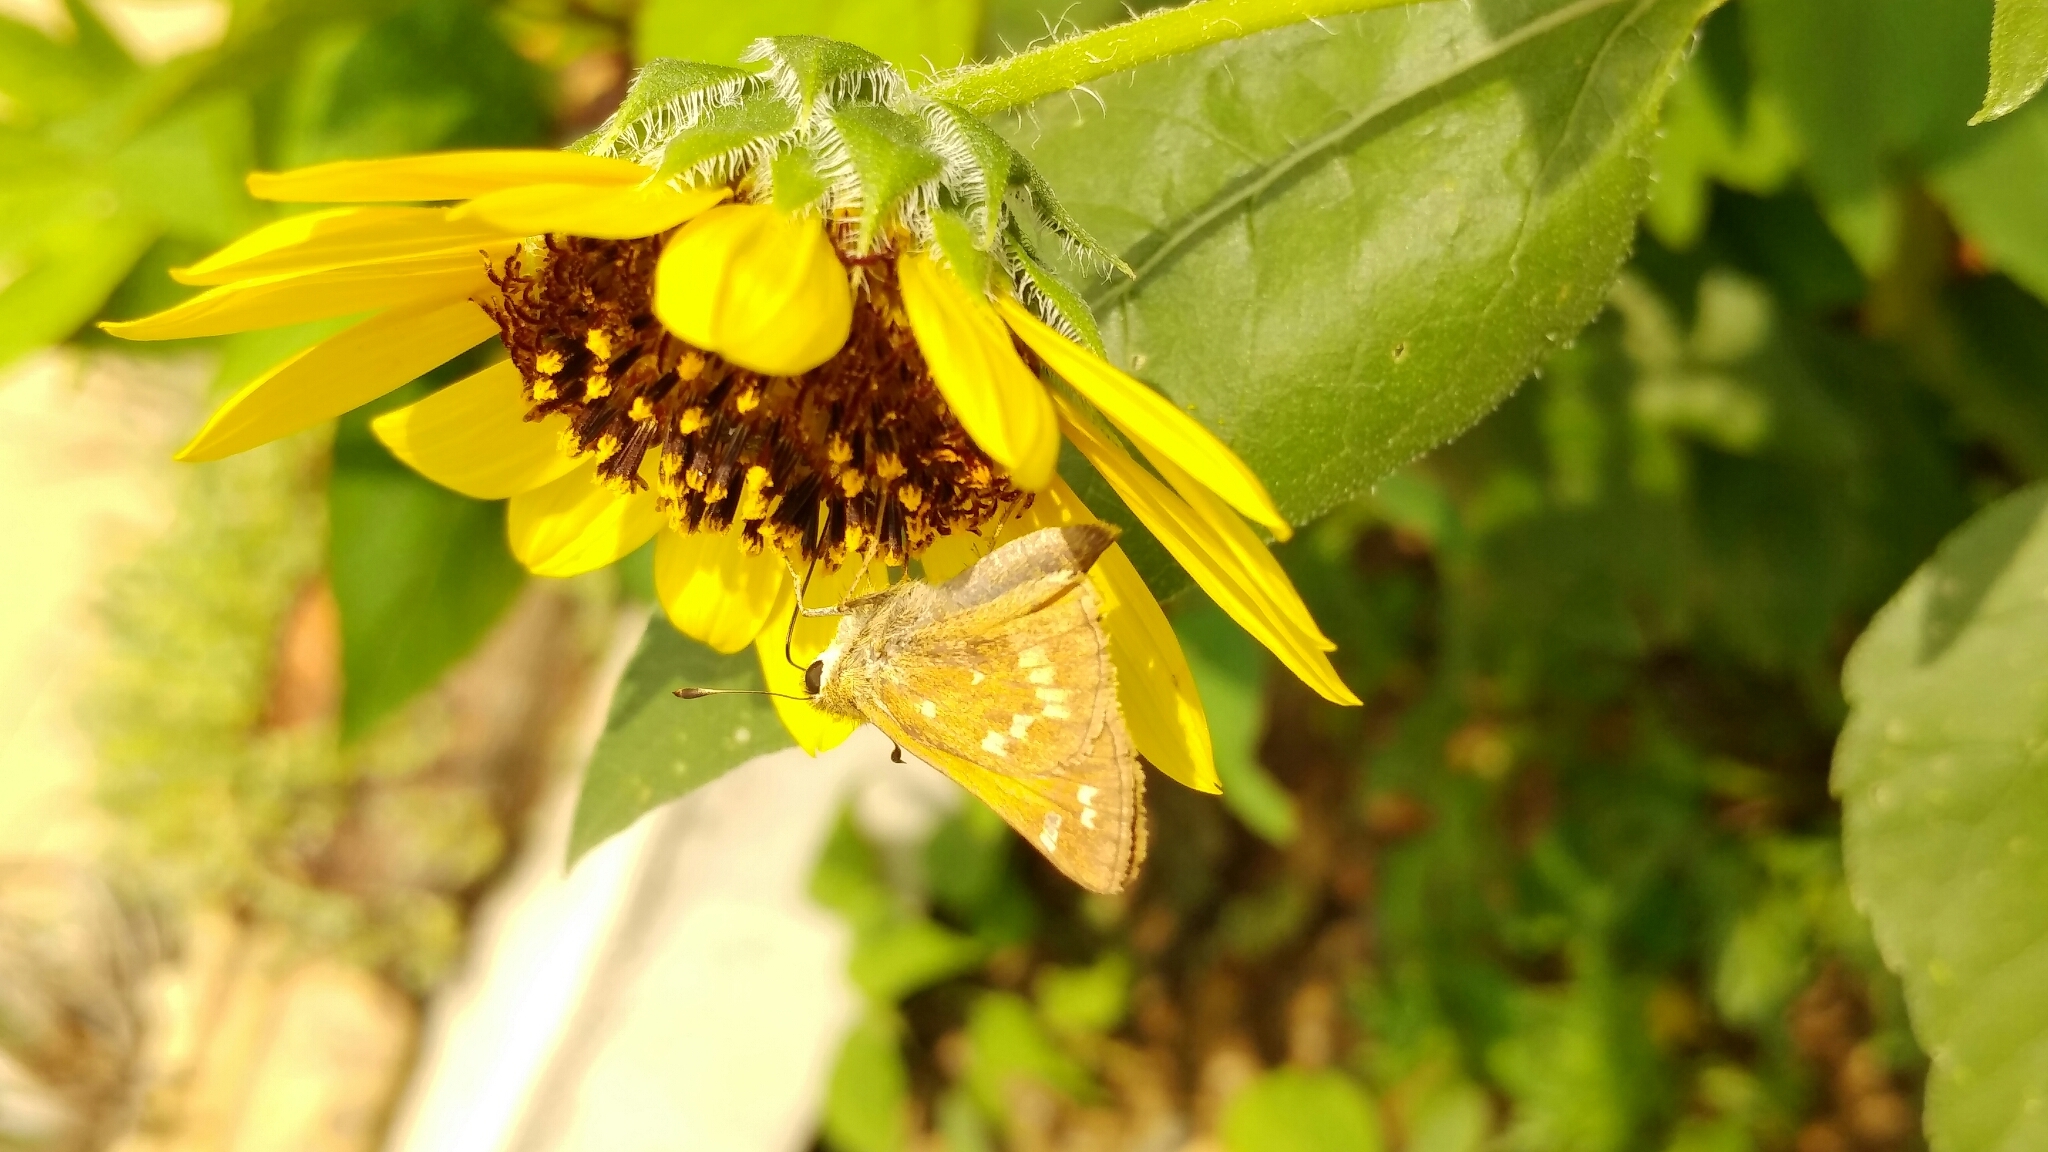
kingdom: Animalia
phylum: Arthropoda
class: Insecta
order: Lepidoptera
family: Hesperiidae
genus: Atalopedes
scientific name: Atalopedes
